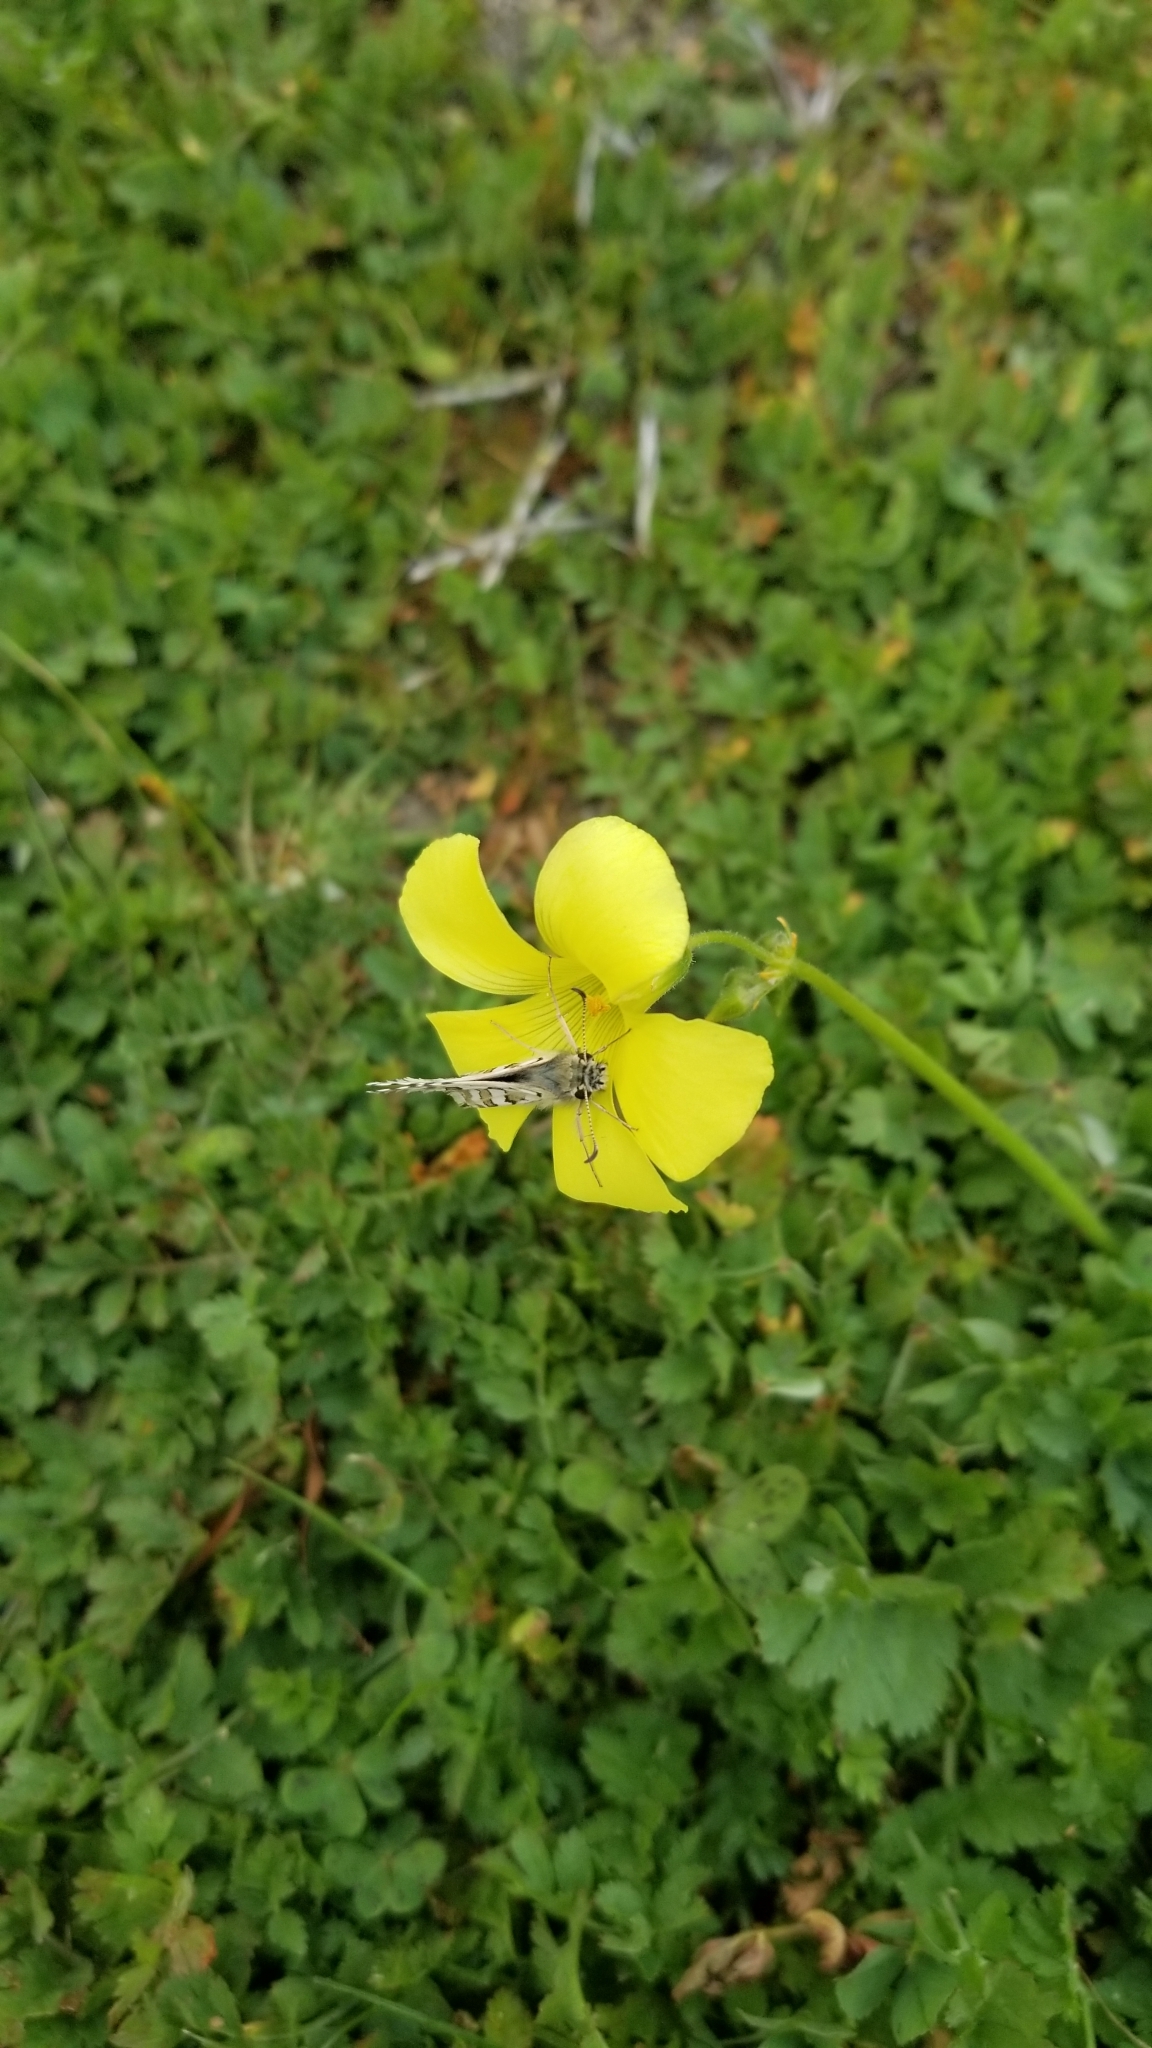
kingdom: Plantae
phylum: Tracheophyta
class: Magnoliopsida
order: Oxalidales
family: Oxalidaceae
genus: Oxalis
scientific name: Oxalis pes-caprae
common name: Bermuda-buttercup
